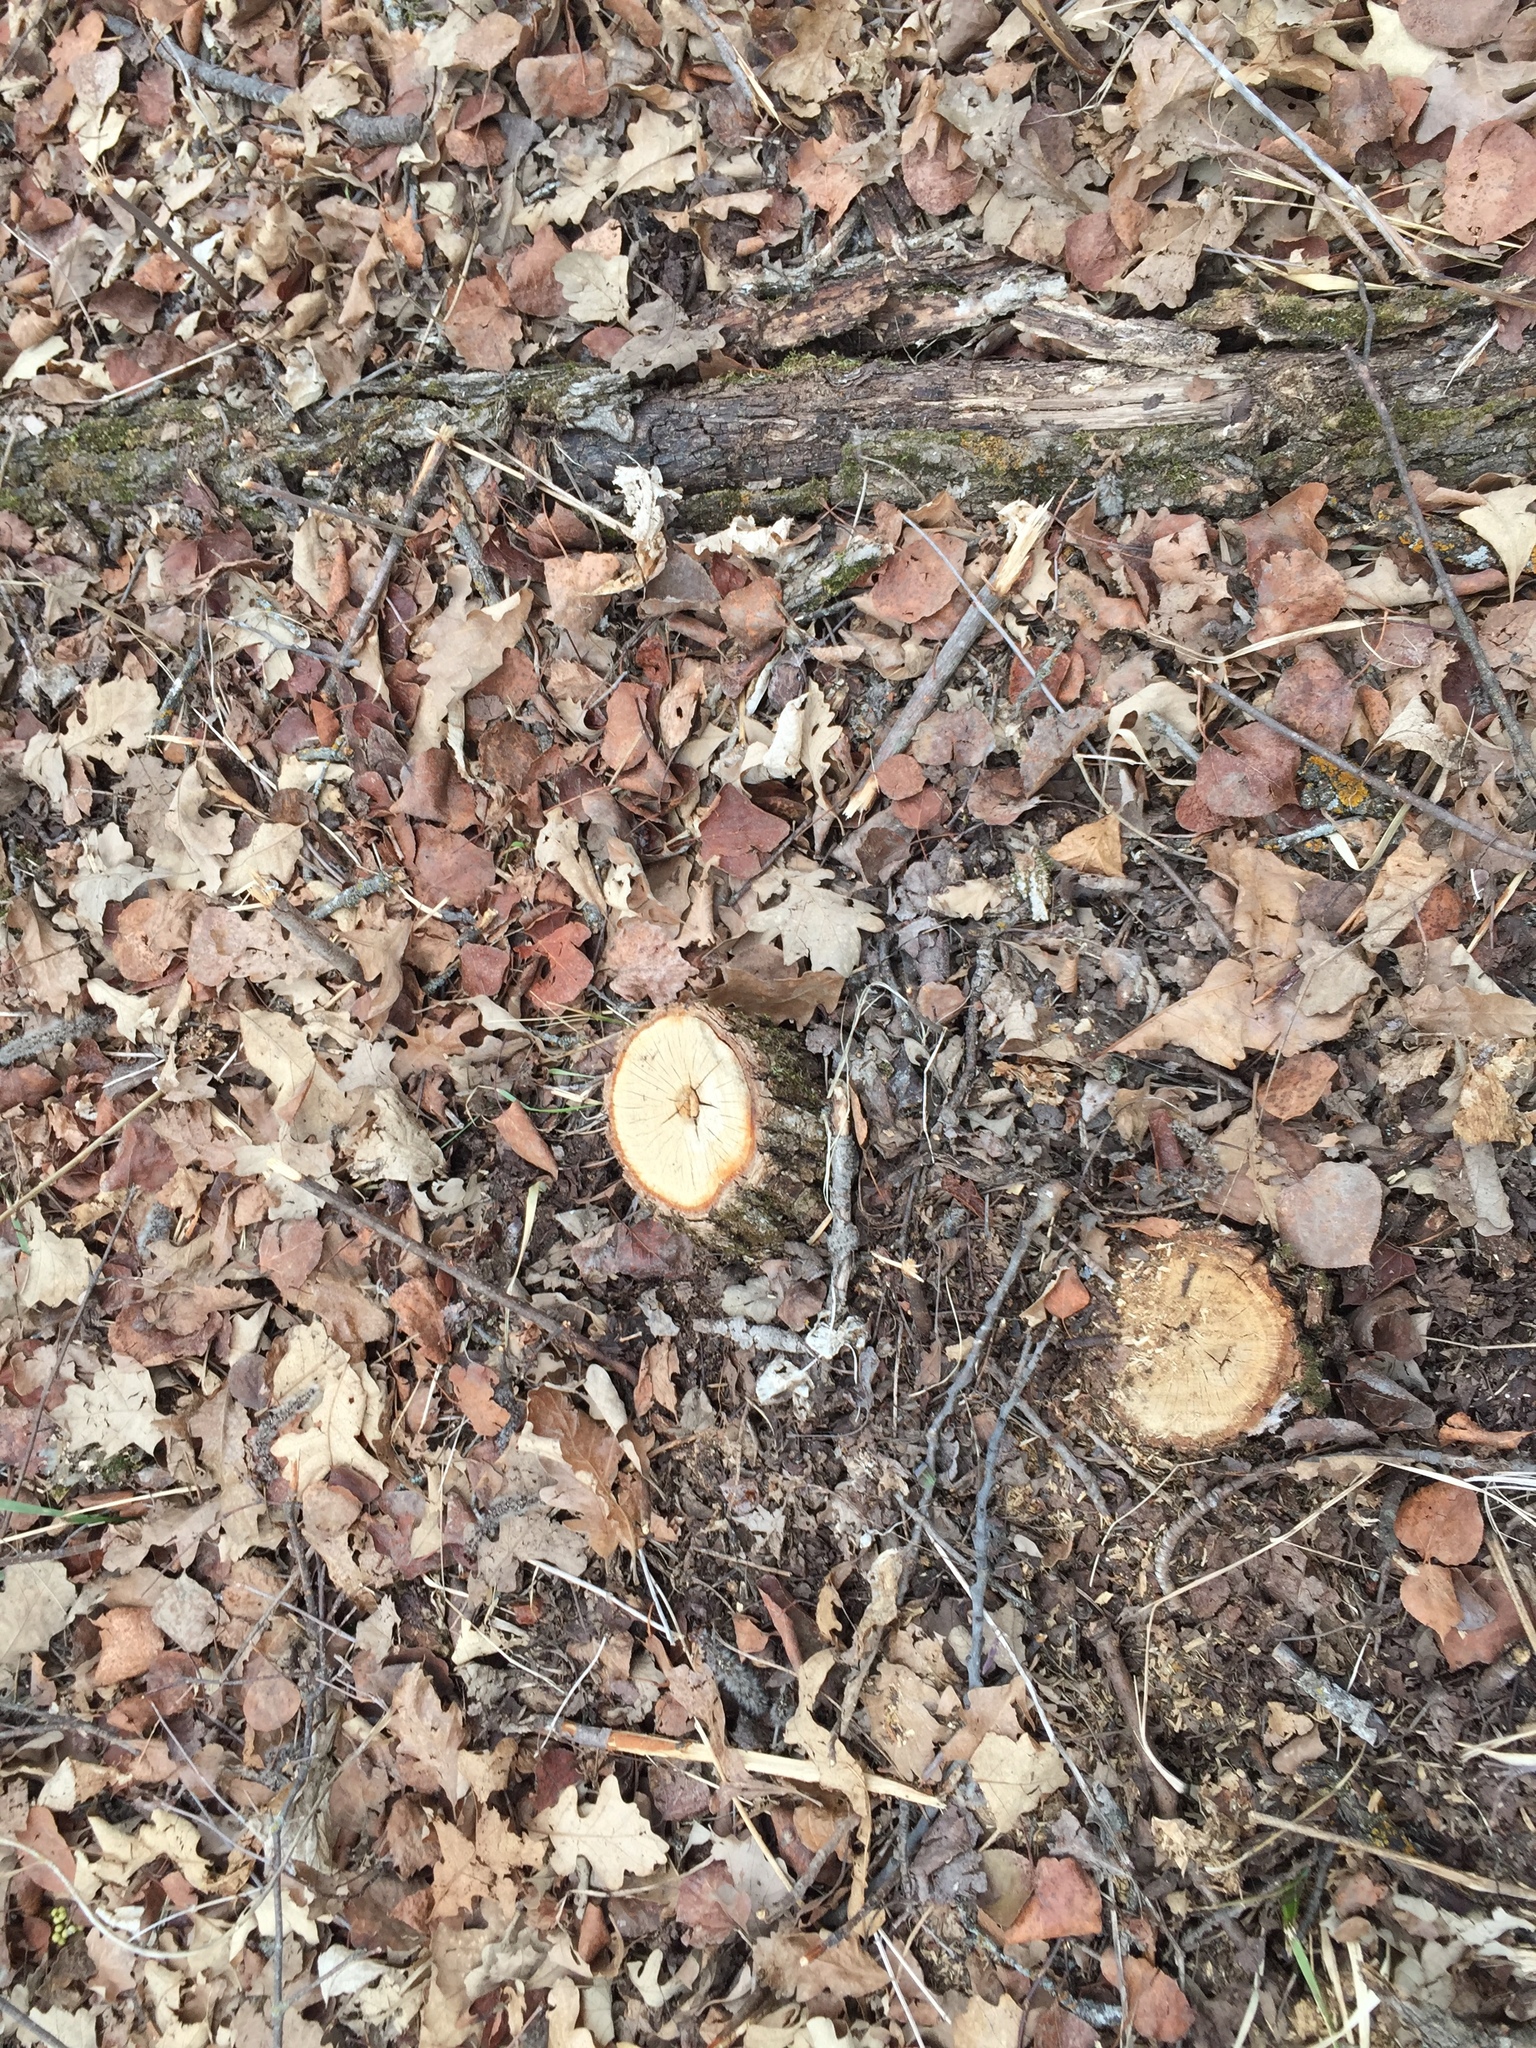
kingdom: Plantae
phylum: Tracheophyta
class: Magnoliopsida
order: Fagales
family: Fagaceae
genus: Quercus
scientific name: Quercus macrocarpa
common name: Bur oak
